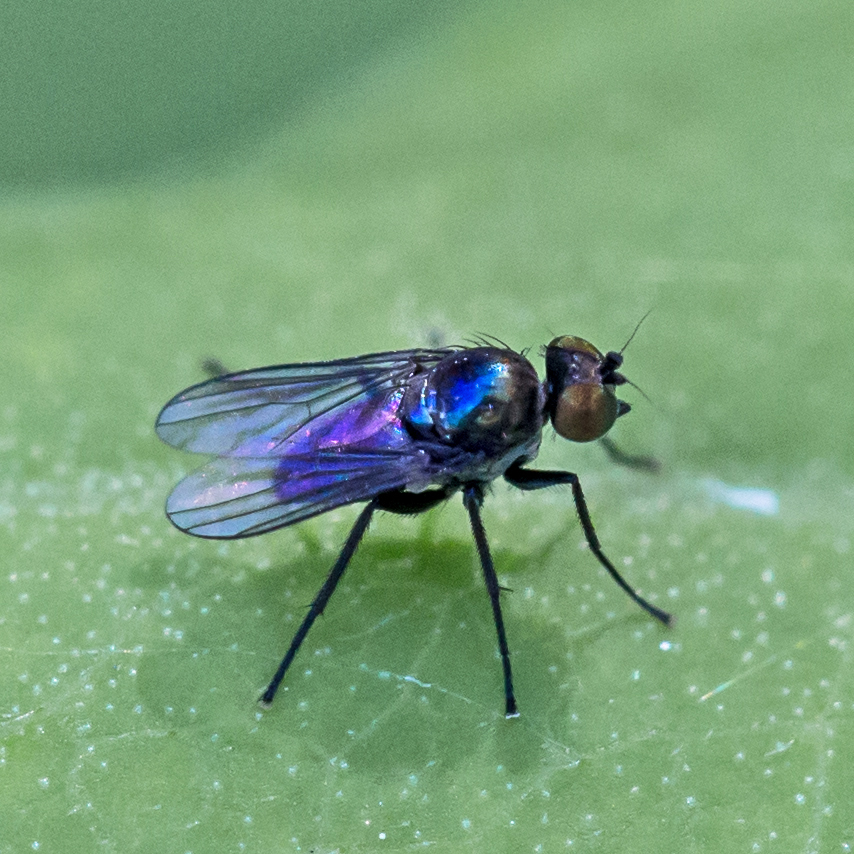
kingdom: Animalia
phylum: Arthropoda
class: Insecta
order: Diptera
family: Dolichopodidae
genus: Chrysotus
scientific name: Chrysotus bellus
